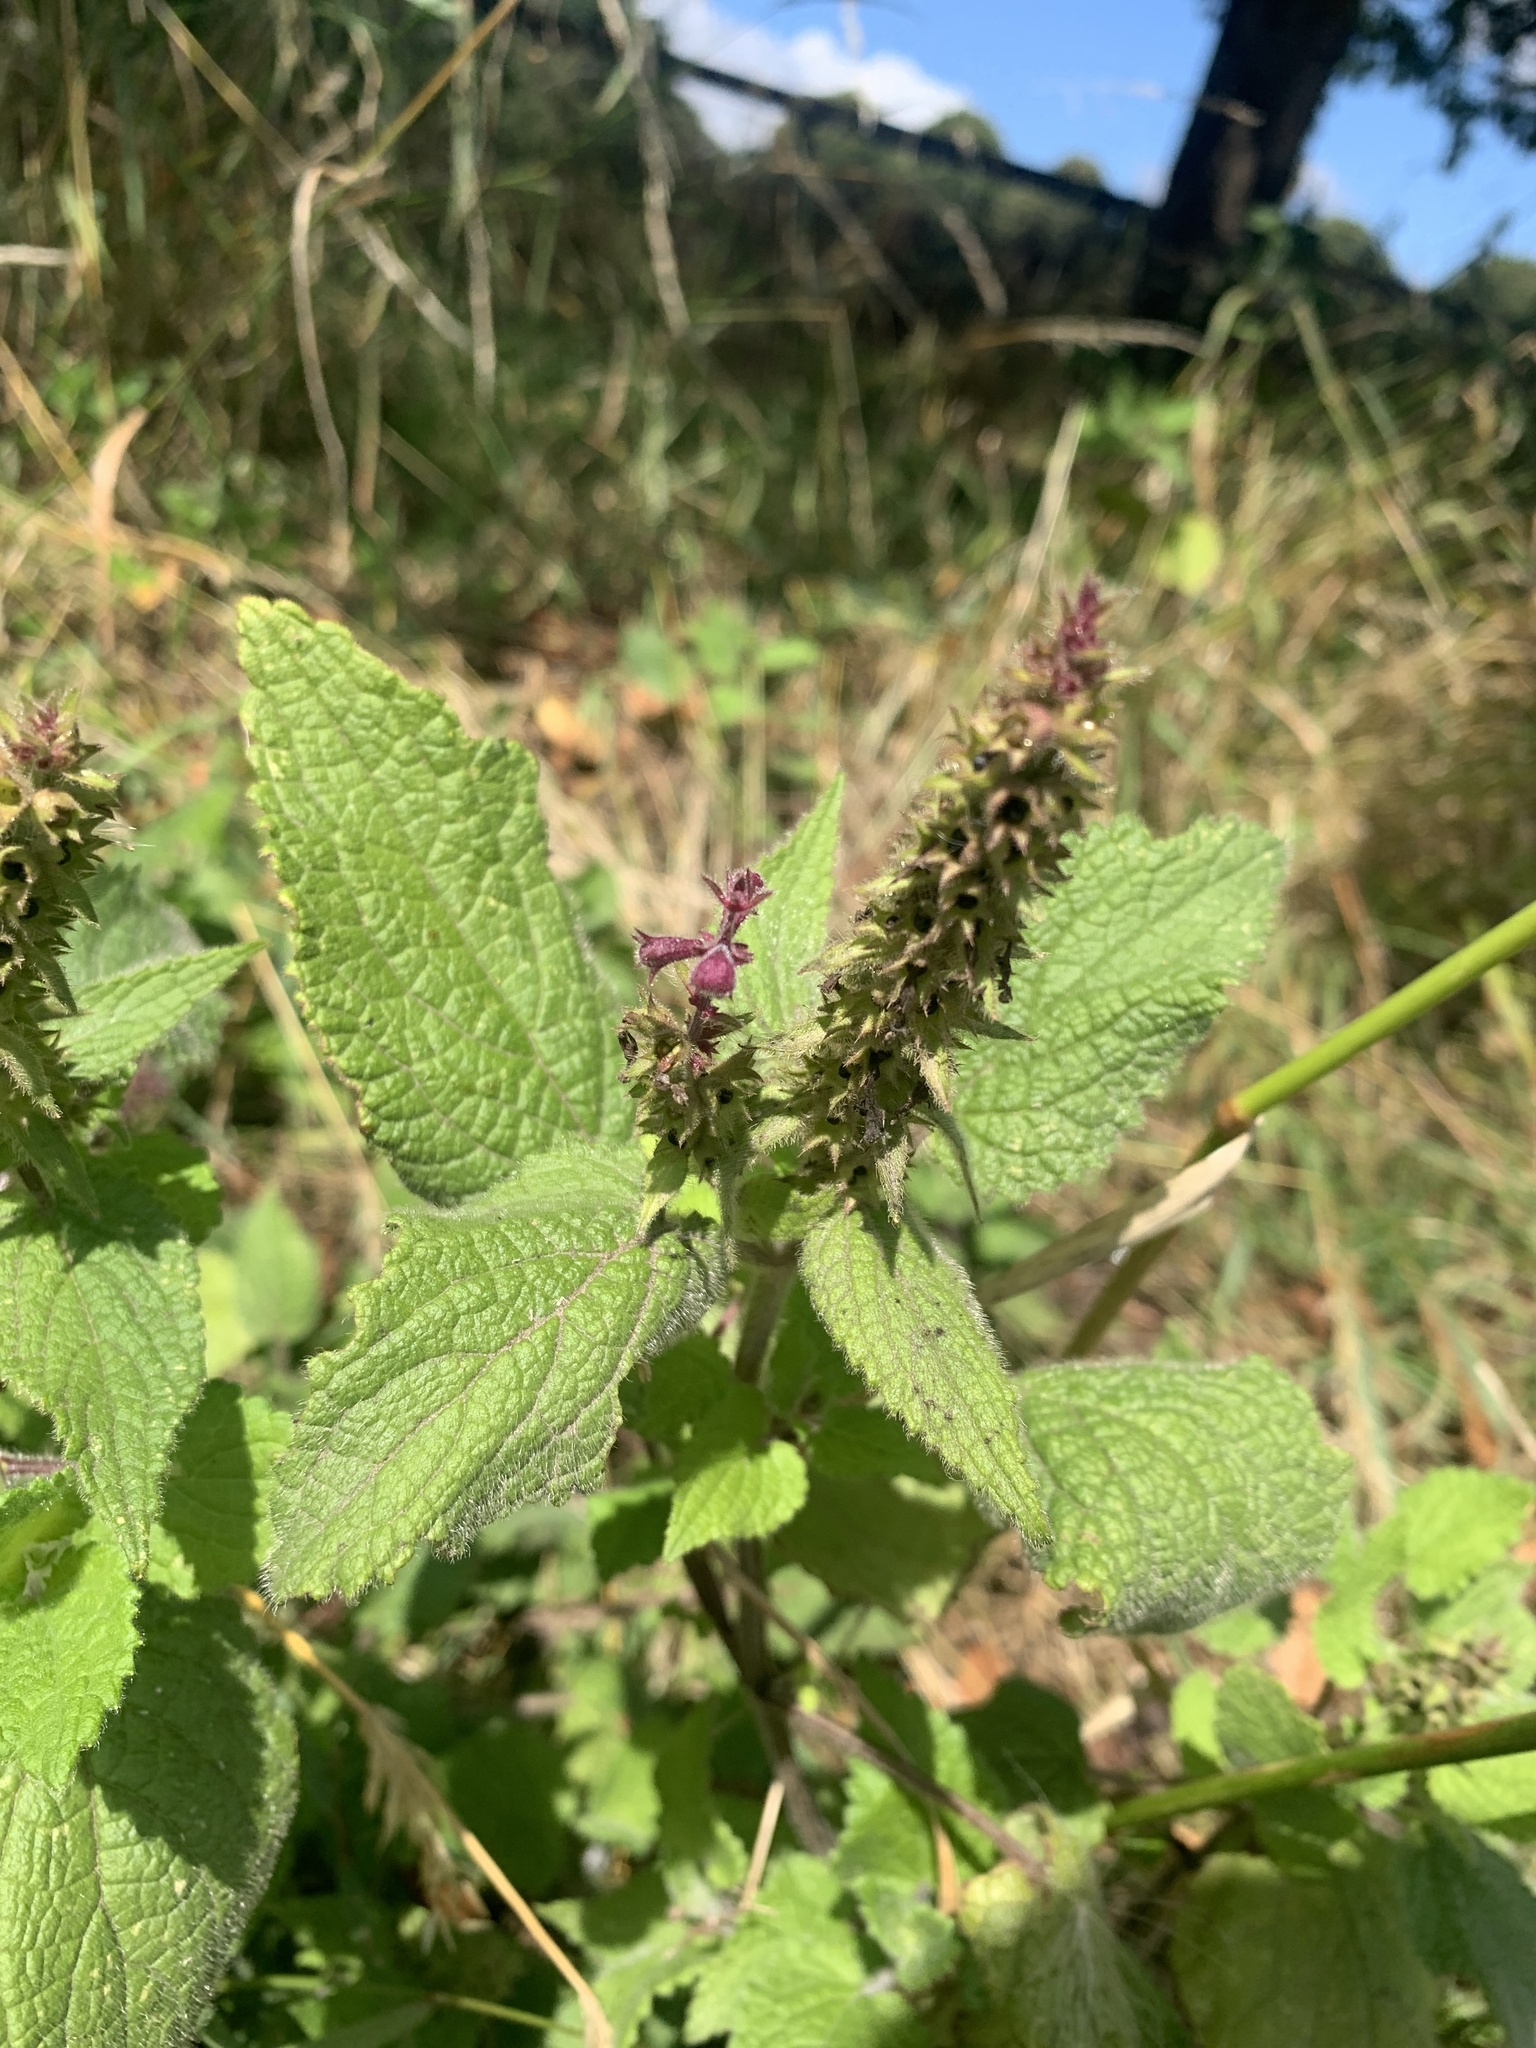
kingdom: Plantae
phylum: Tracheophyta
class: Magnoliopsida
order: Lamiales
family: Lamiaceae
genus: Stachys
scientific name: Stachys sylvatica
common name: Hedge woundwort
